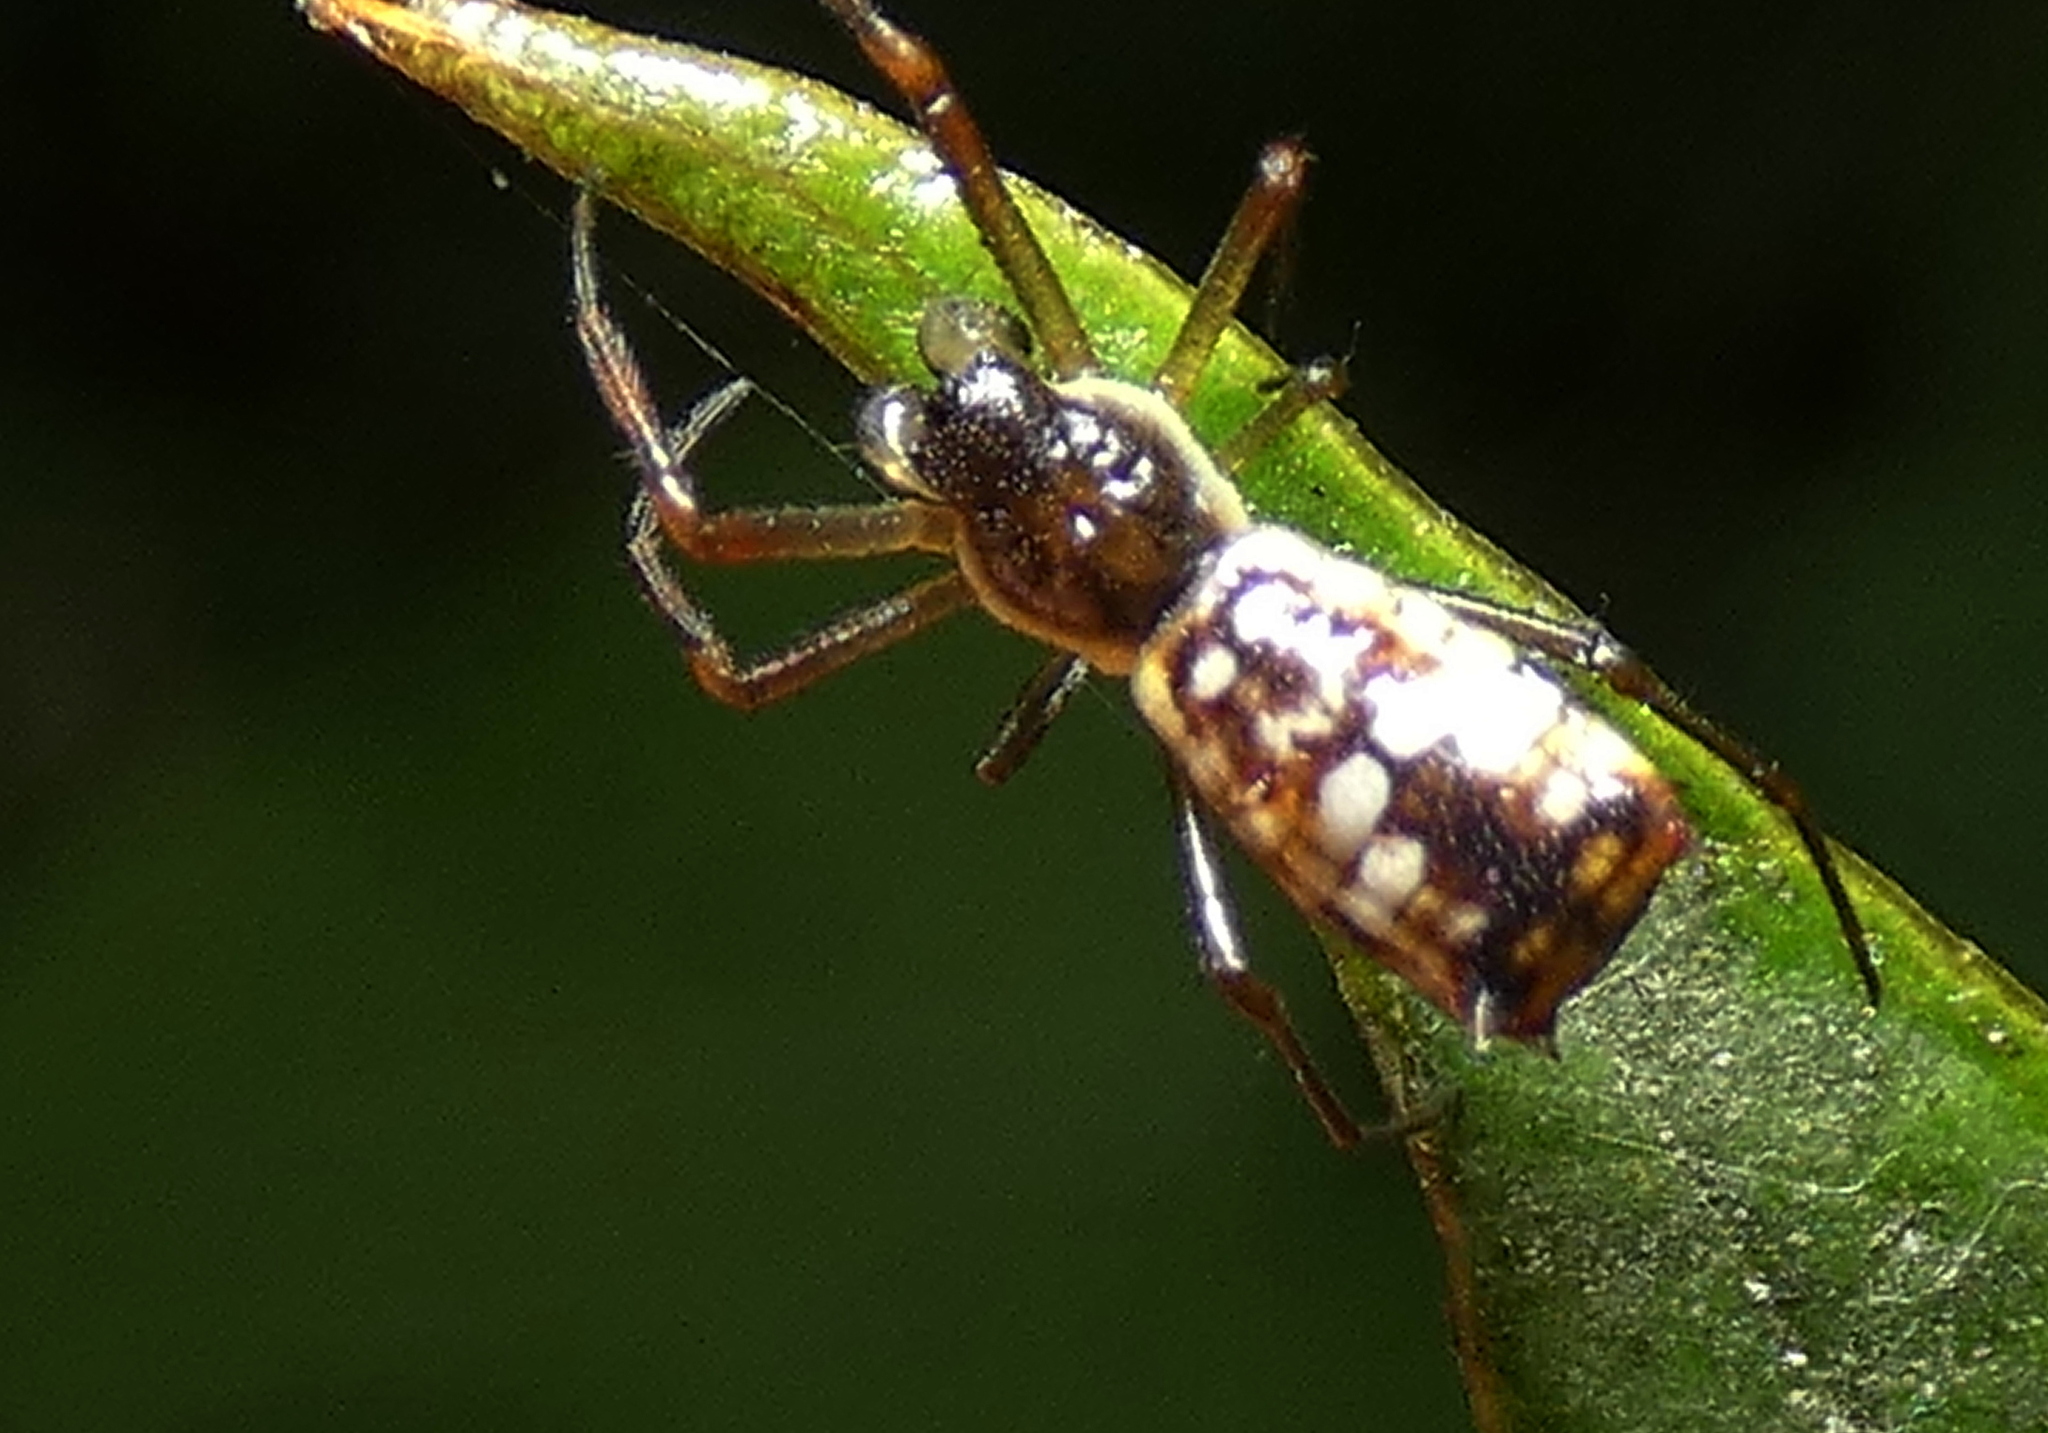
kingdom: Animalia
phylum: Arthropoda
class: Arachnida
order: Araneae
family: Araneidae
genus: Micrathena
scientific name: Micrathena fissispina
